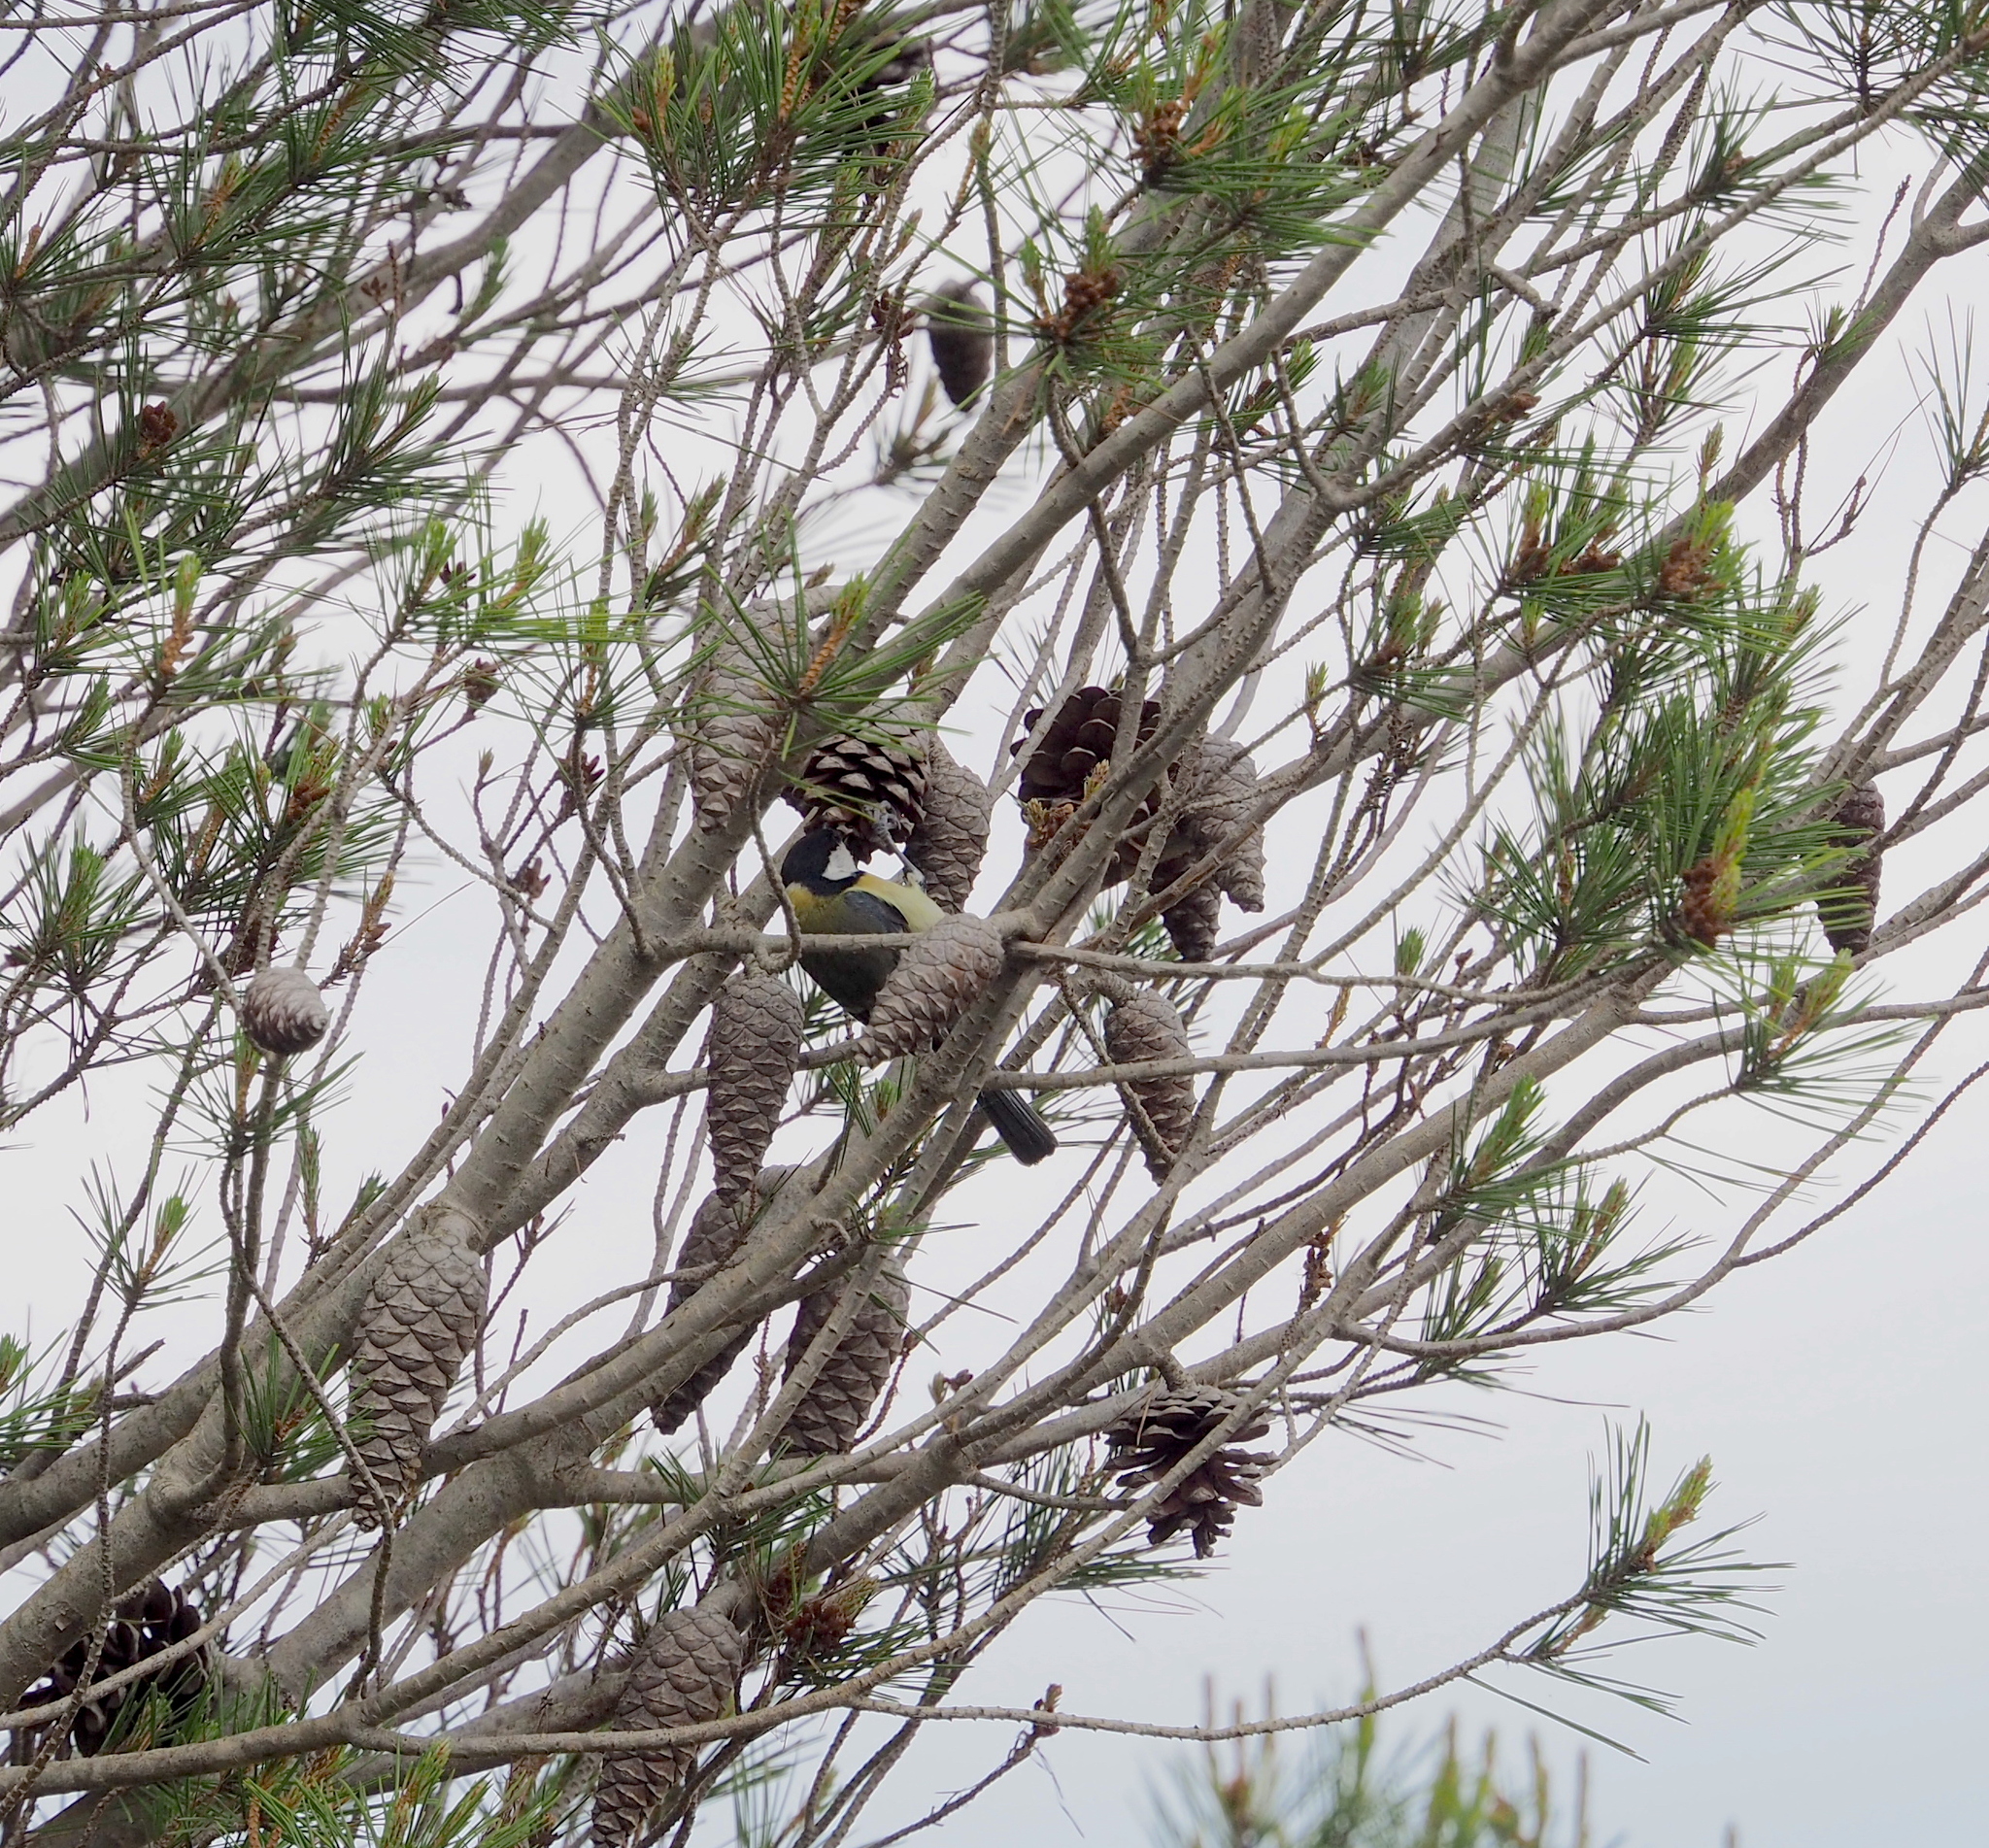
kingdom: Animalia
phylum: Chordata
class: Aves
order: Passeriformes
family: Paridae
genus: Parus
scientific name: Parus major
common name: Great tit
